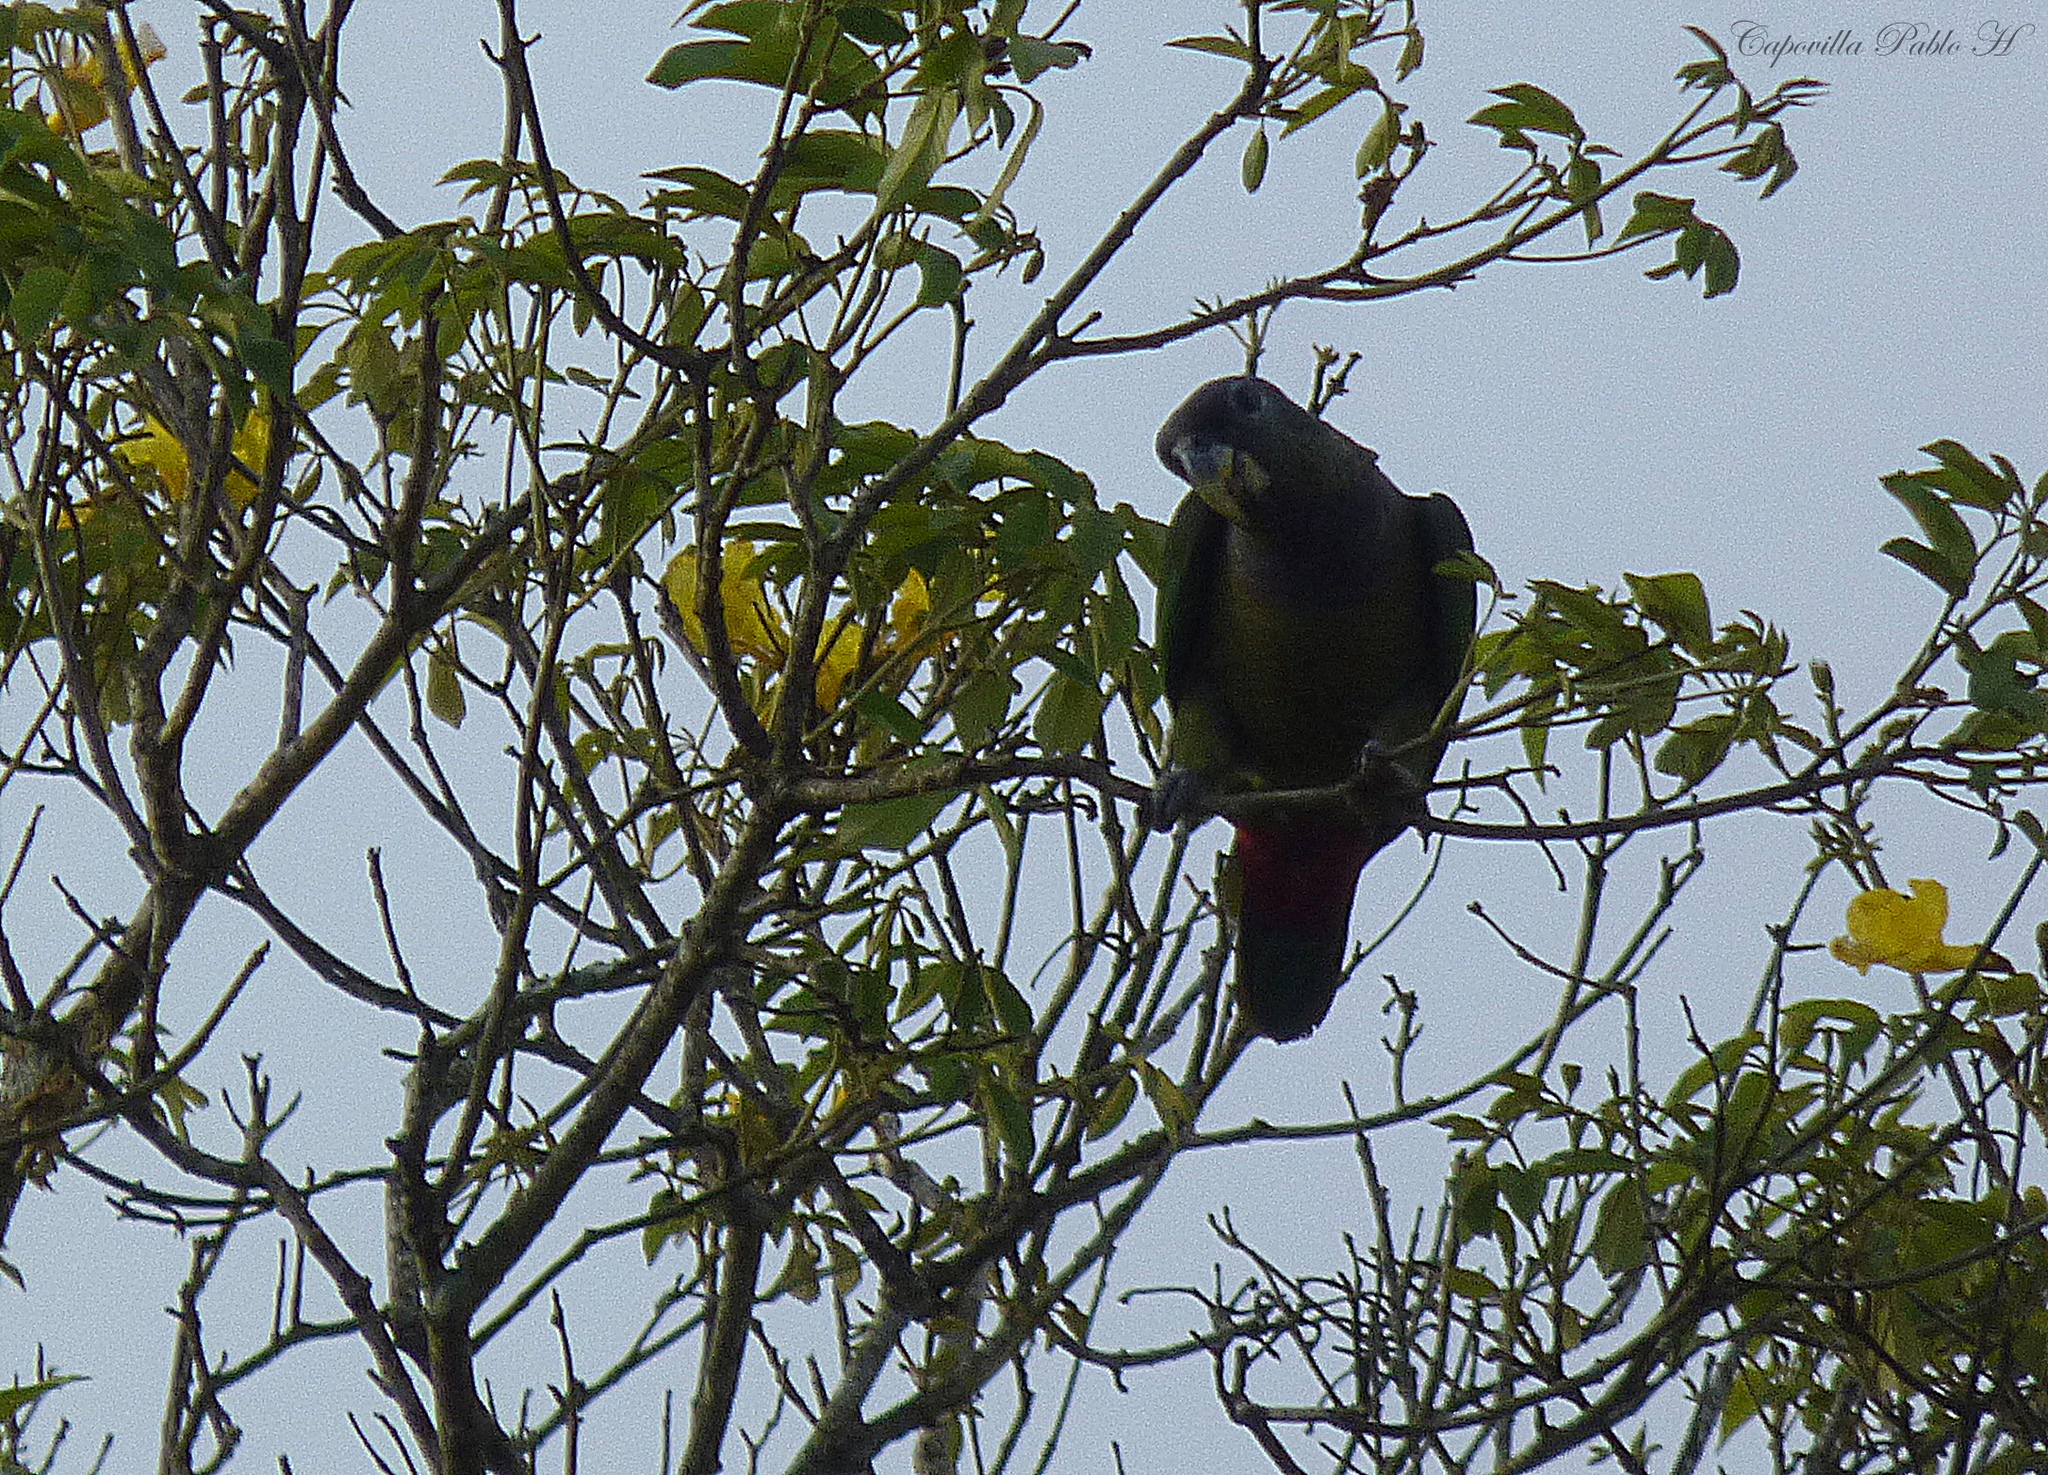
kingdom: Animalia
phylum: Chordata
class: Aves
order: Psittaciformes
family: Psittacidae
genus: Pionus
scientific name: Pionus maximiliani
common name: Scaly-headed parrot
